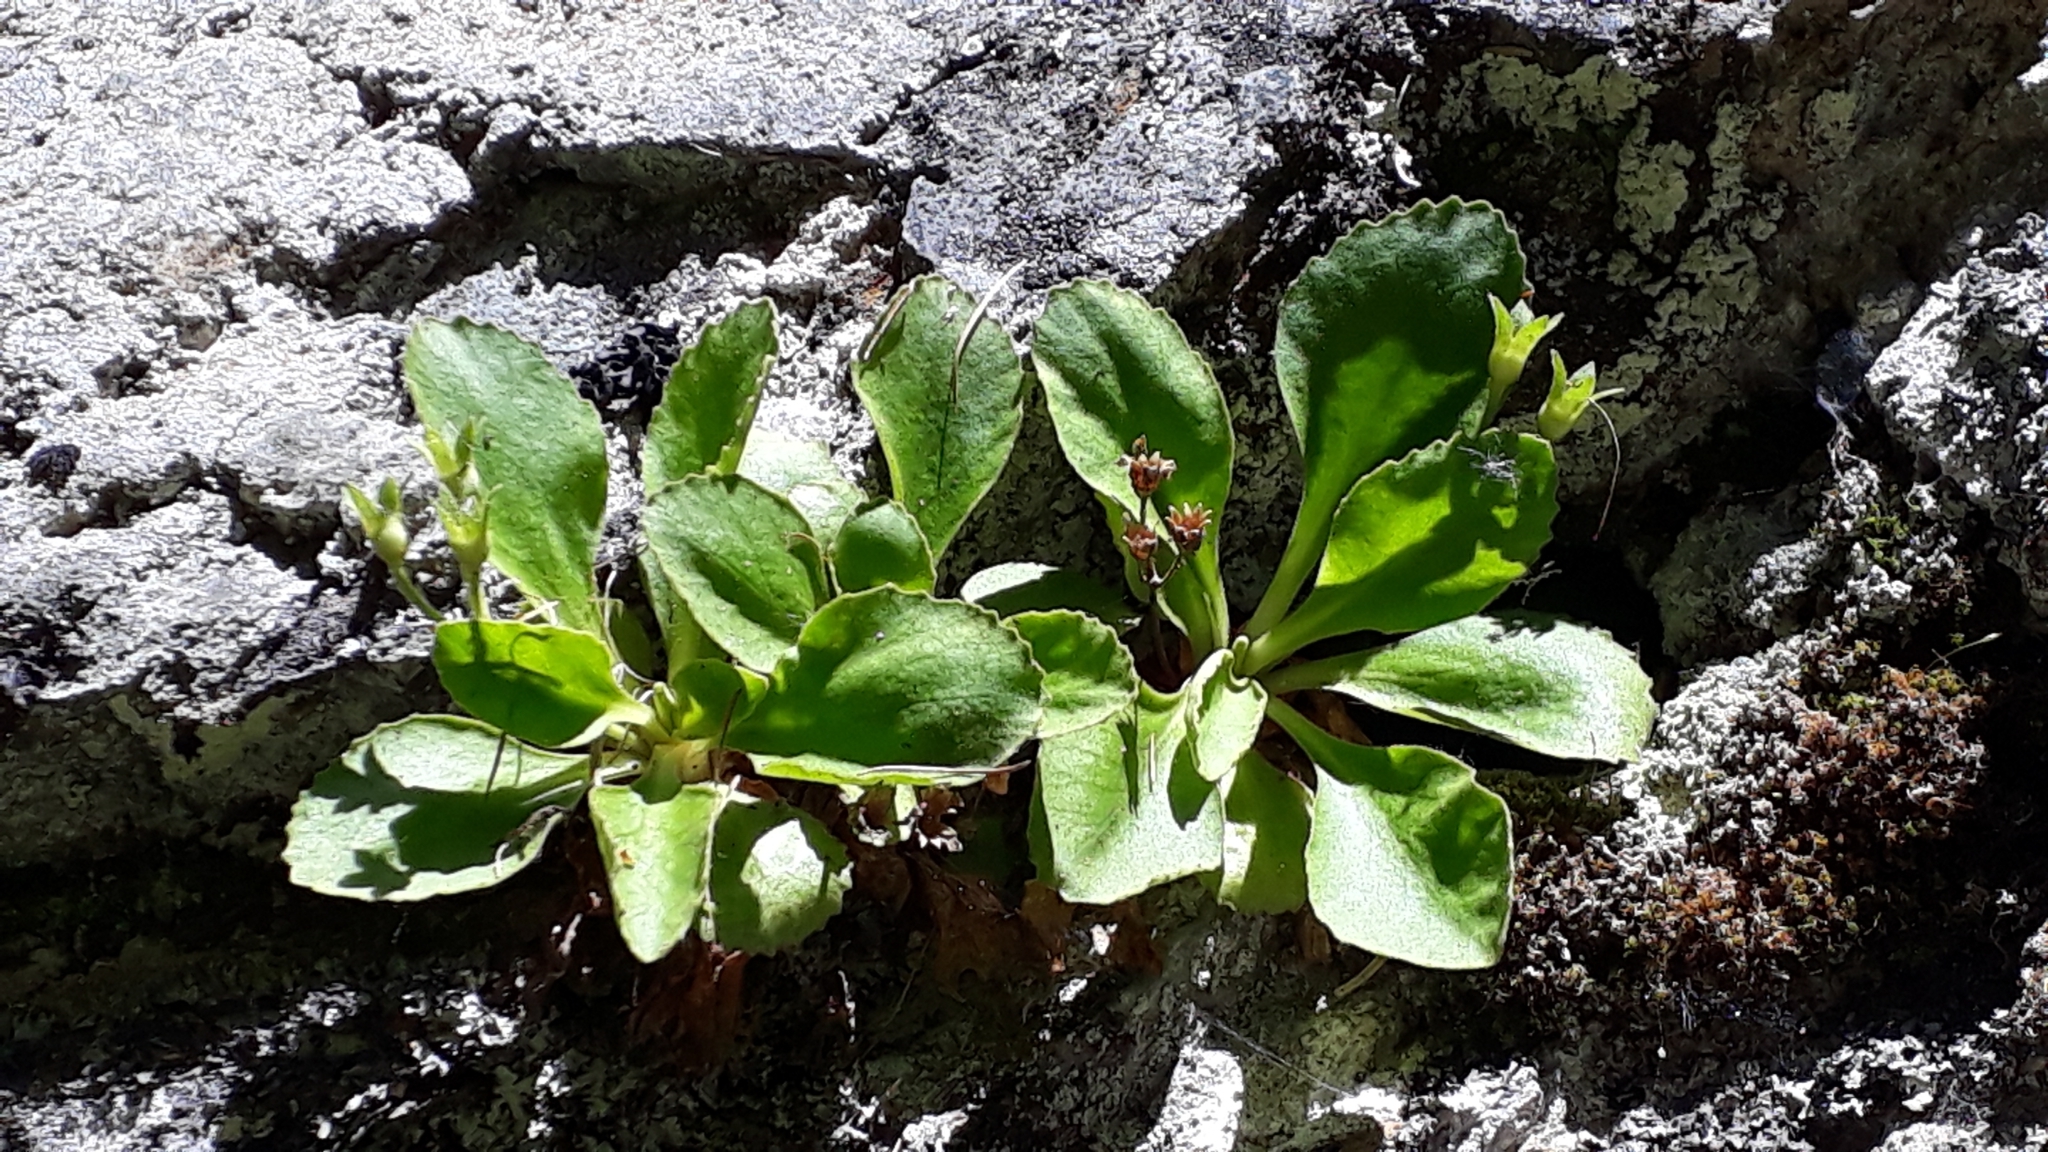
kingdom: Plantae
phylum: Tracheophyta
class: Magnoliopsida
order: Ericales
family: Primulaceae
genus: Primula
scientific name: Primula hirsuta
